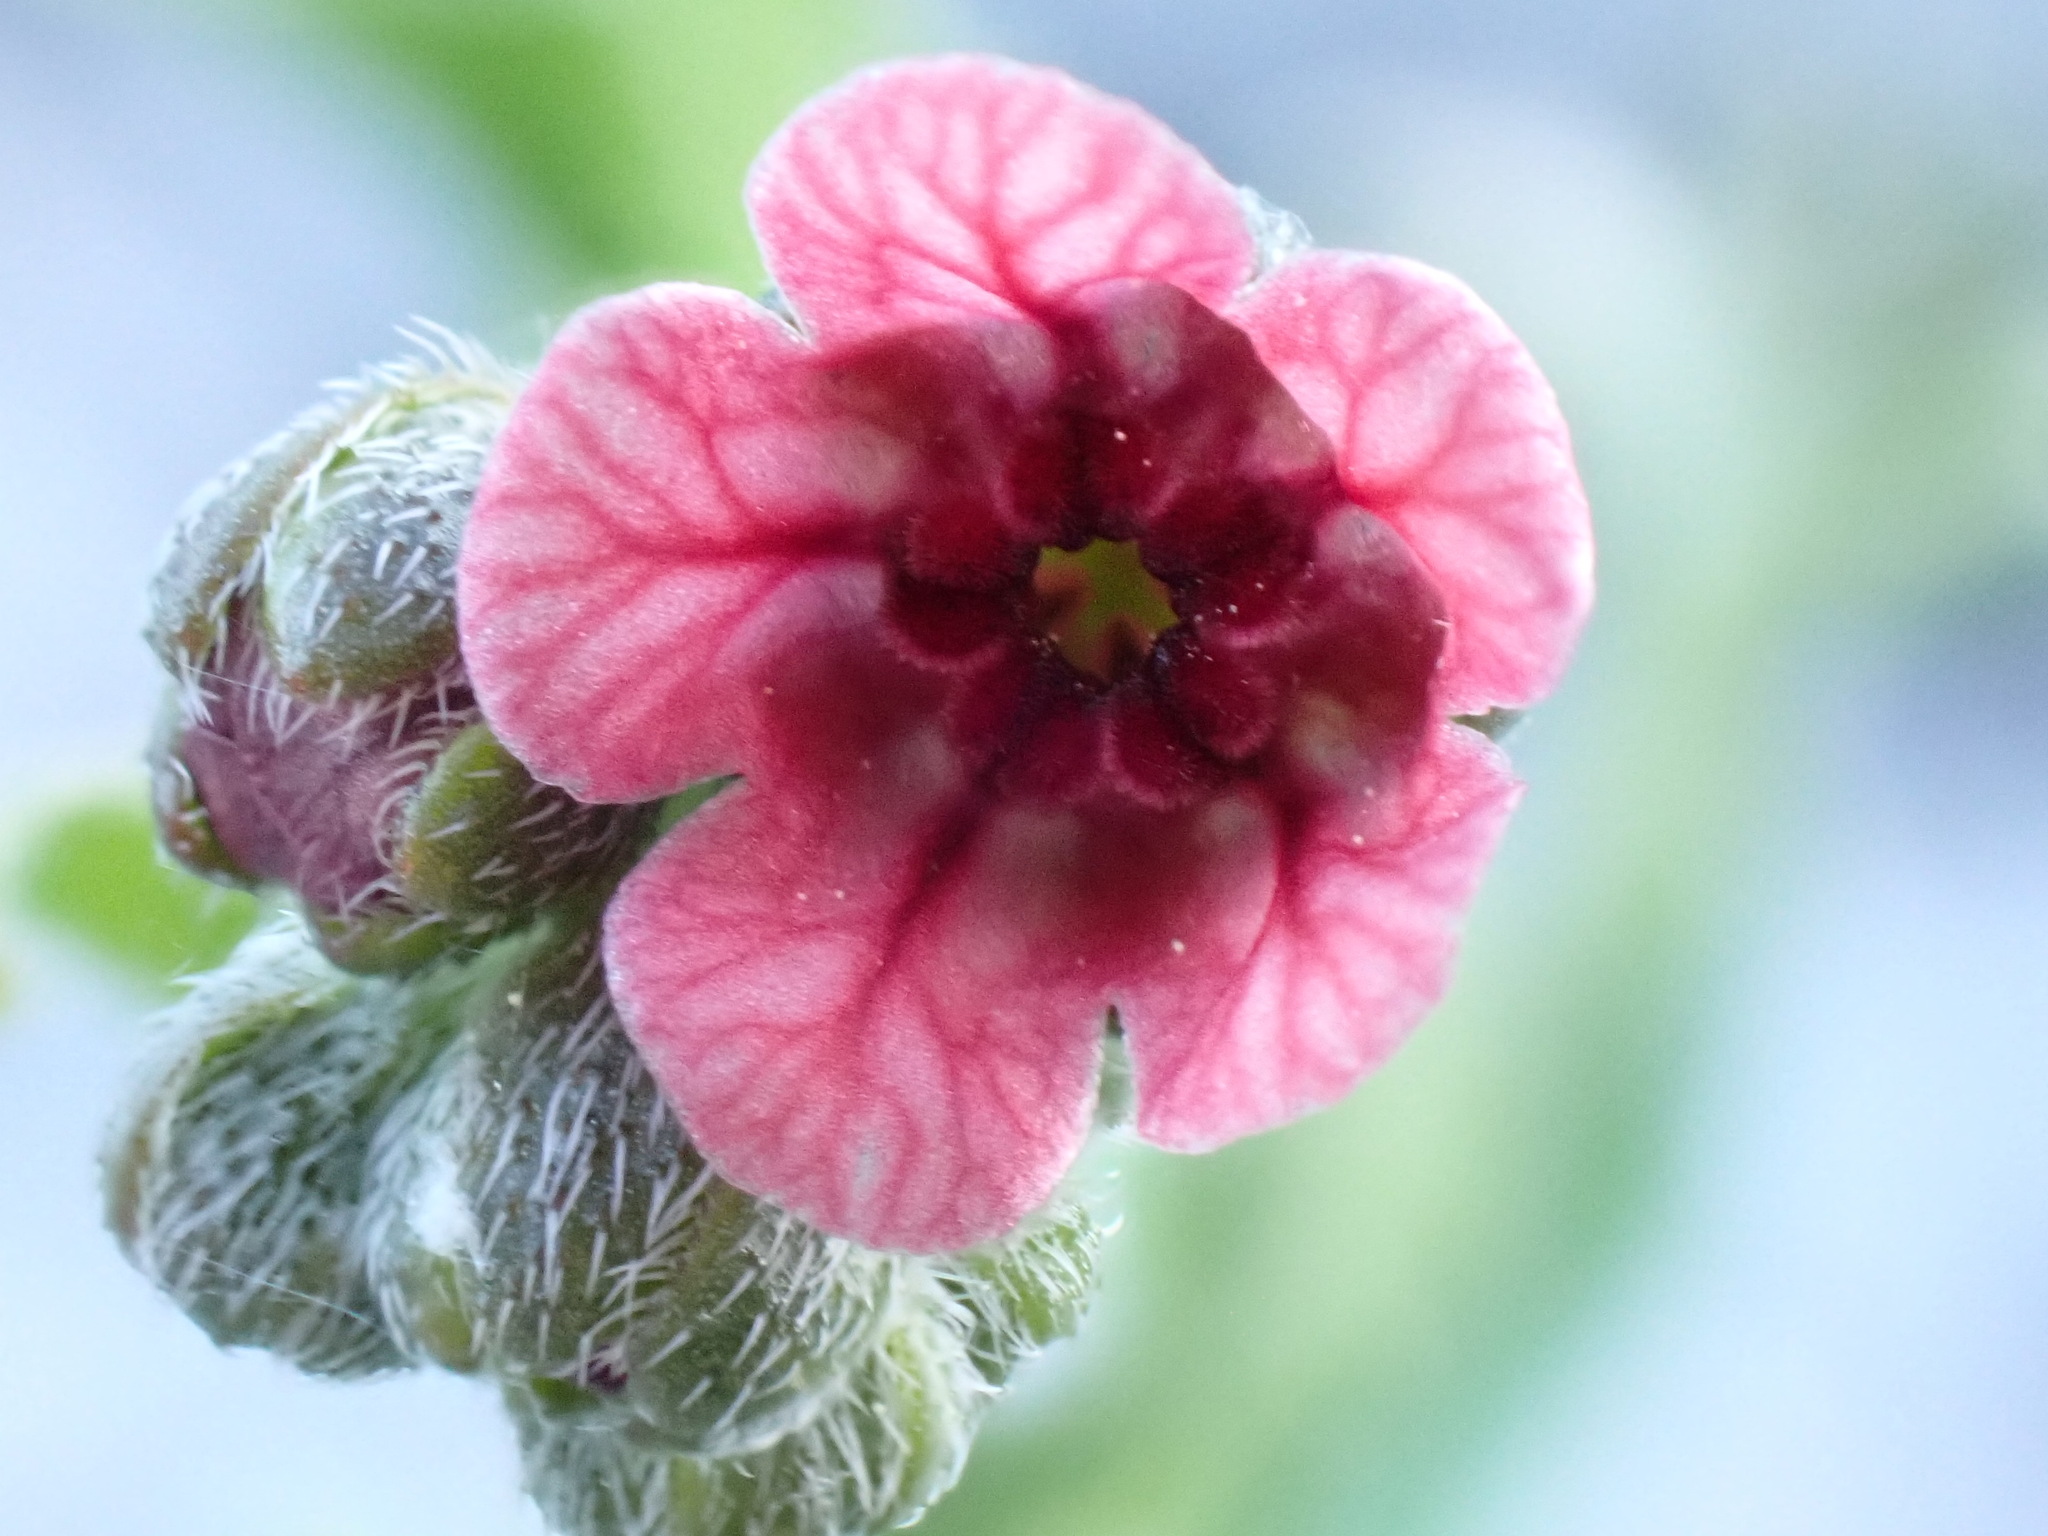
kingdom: Plantae
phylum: Tracheophyta
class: Magnoliopsida
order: Boraginales
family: Boraginaceae
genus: Cynoglossum
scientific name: Cynoglossum pustulatum
